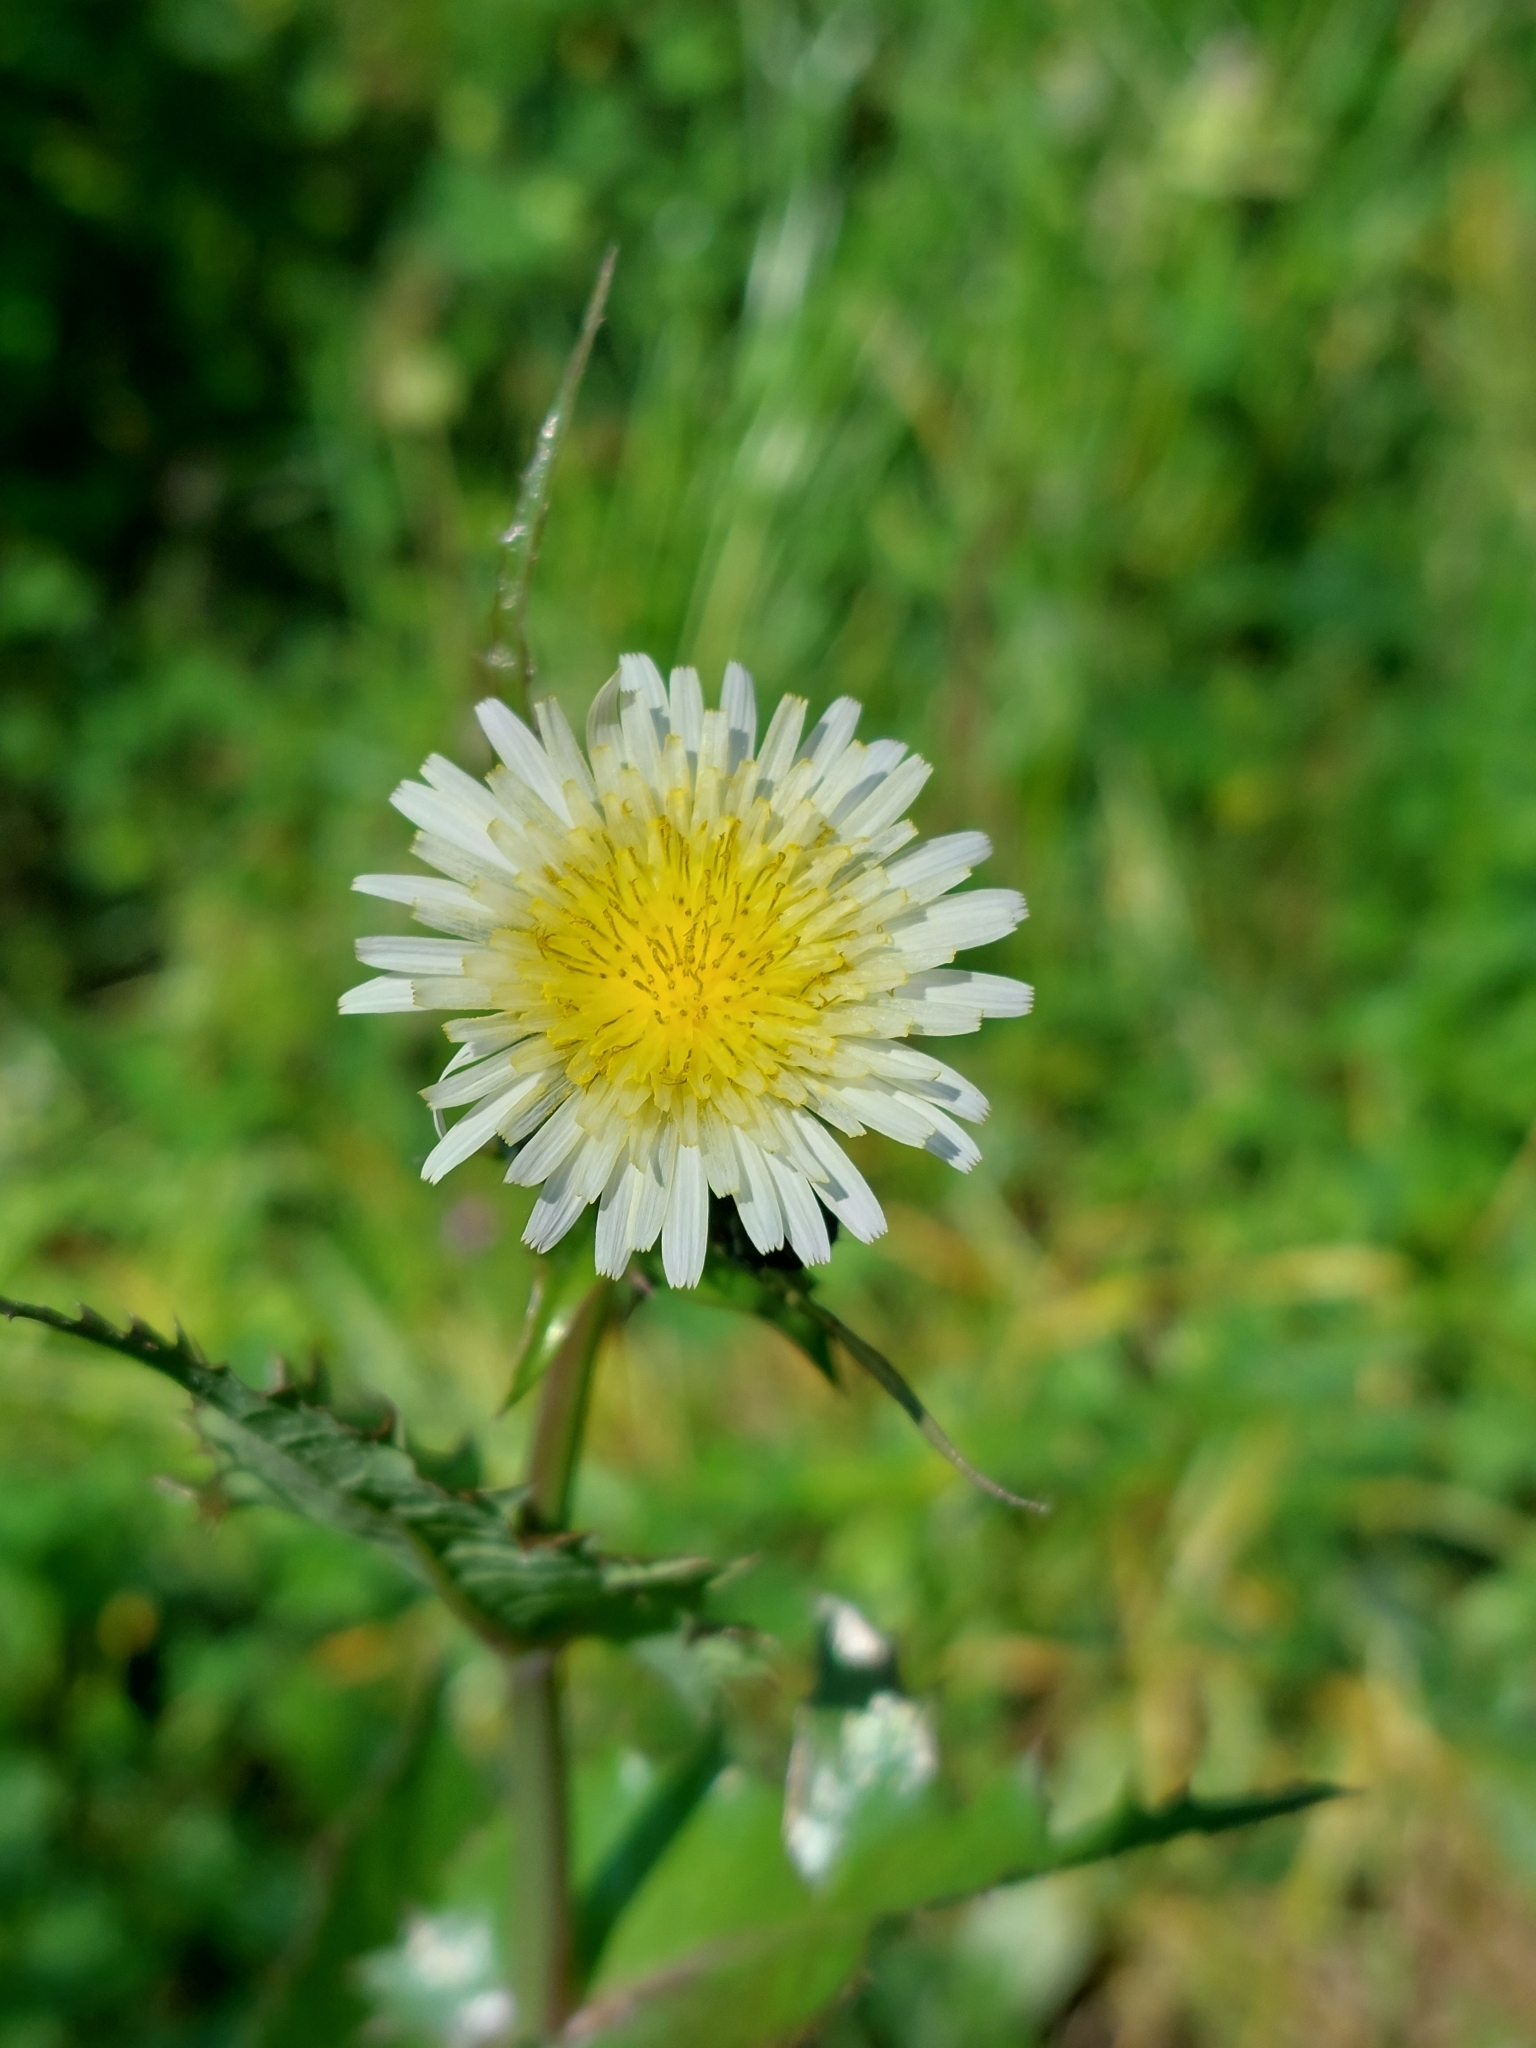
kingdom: Plantae
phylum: Tracheophyta
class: Magnoliopsida
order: Asterales
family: Asteraceae
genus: Sonchus
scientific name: Sonchus oleraceus
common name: Common sowthistle
